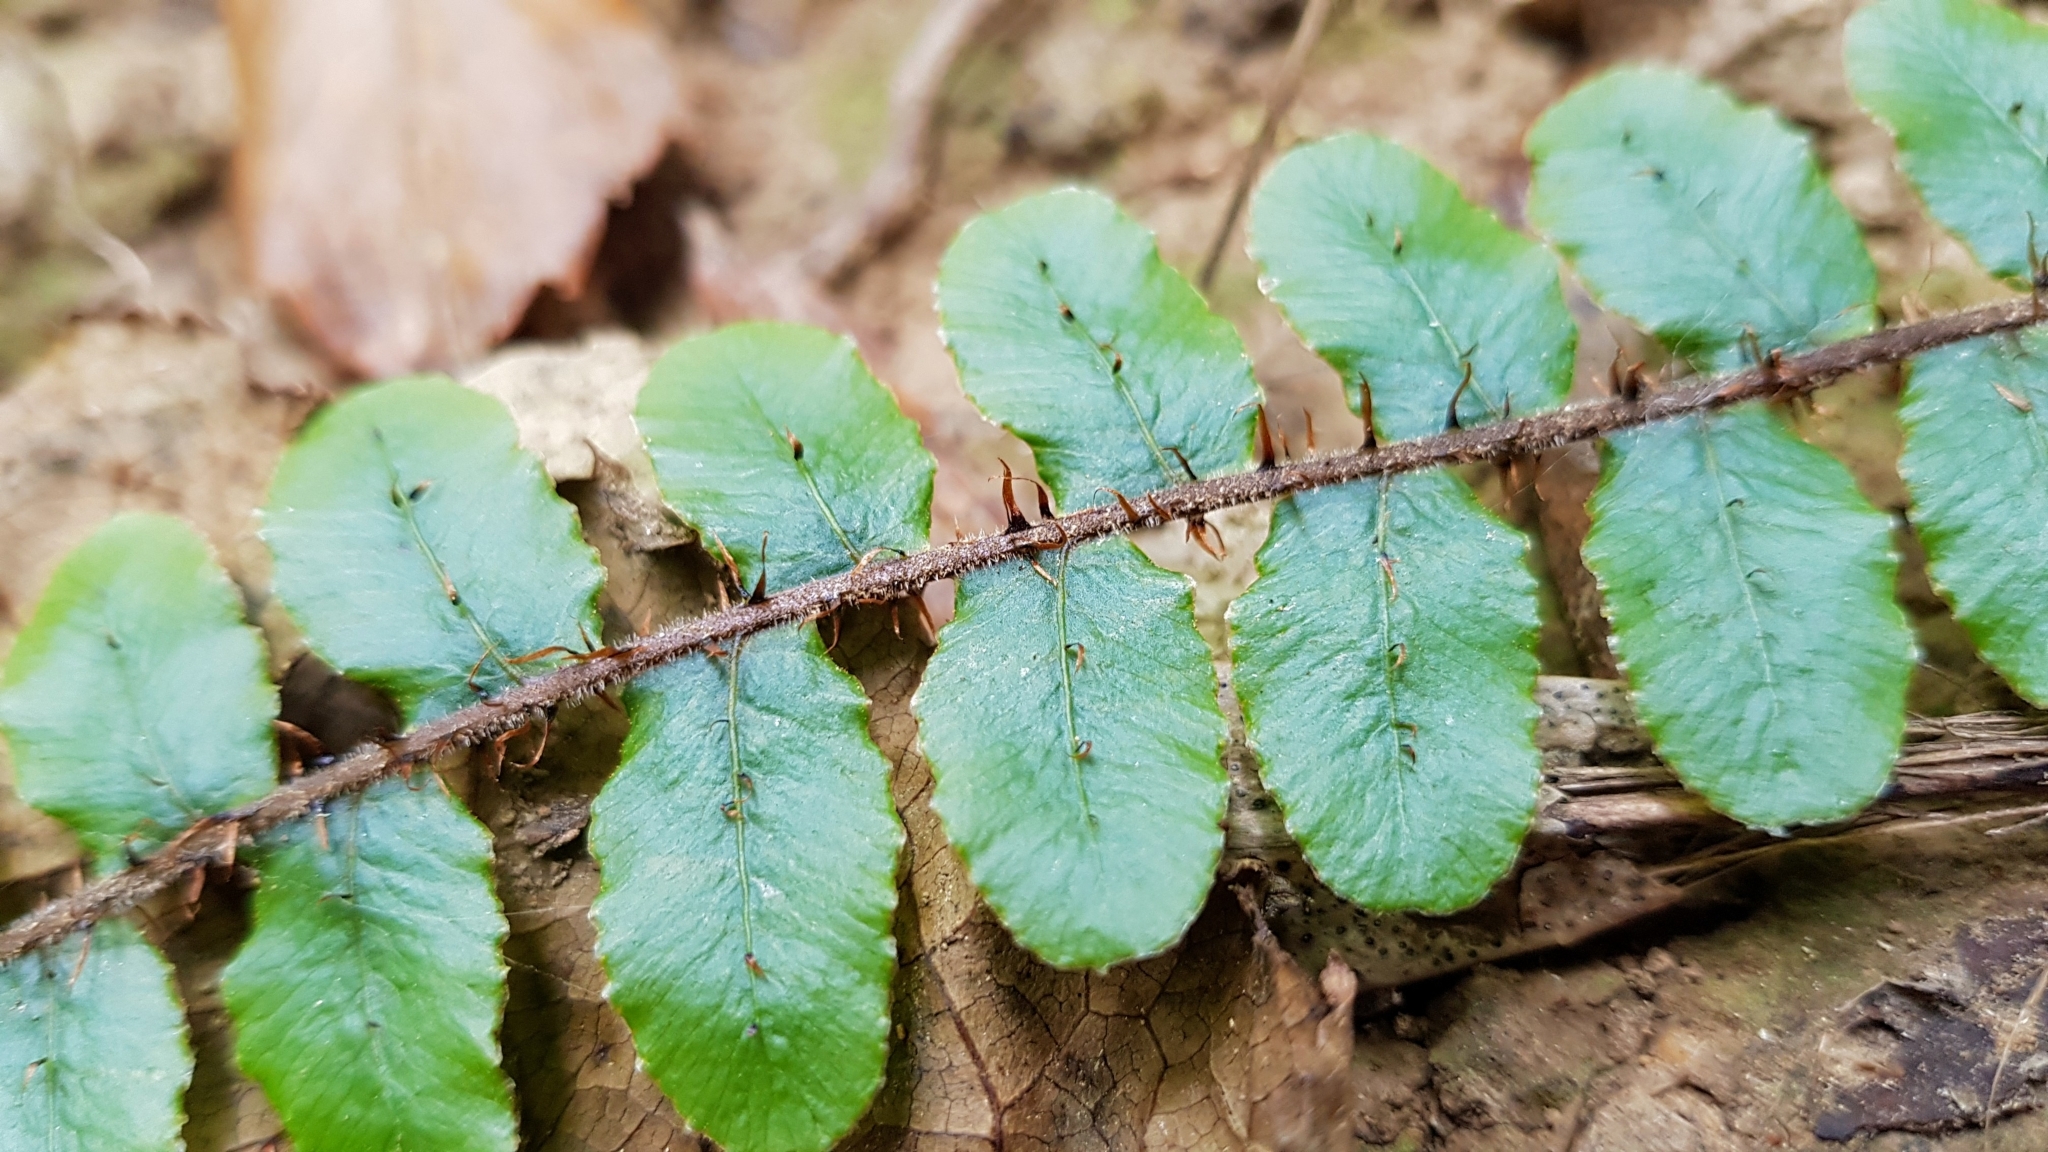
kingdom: Plantae
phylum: Tracheophyta
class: Polypodiopsida
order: Polypodiales
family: Blechnaceae
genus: Cranfillia
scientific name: Cranfillia fluviatilis
